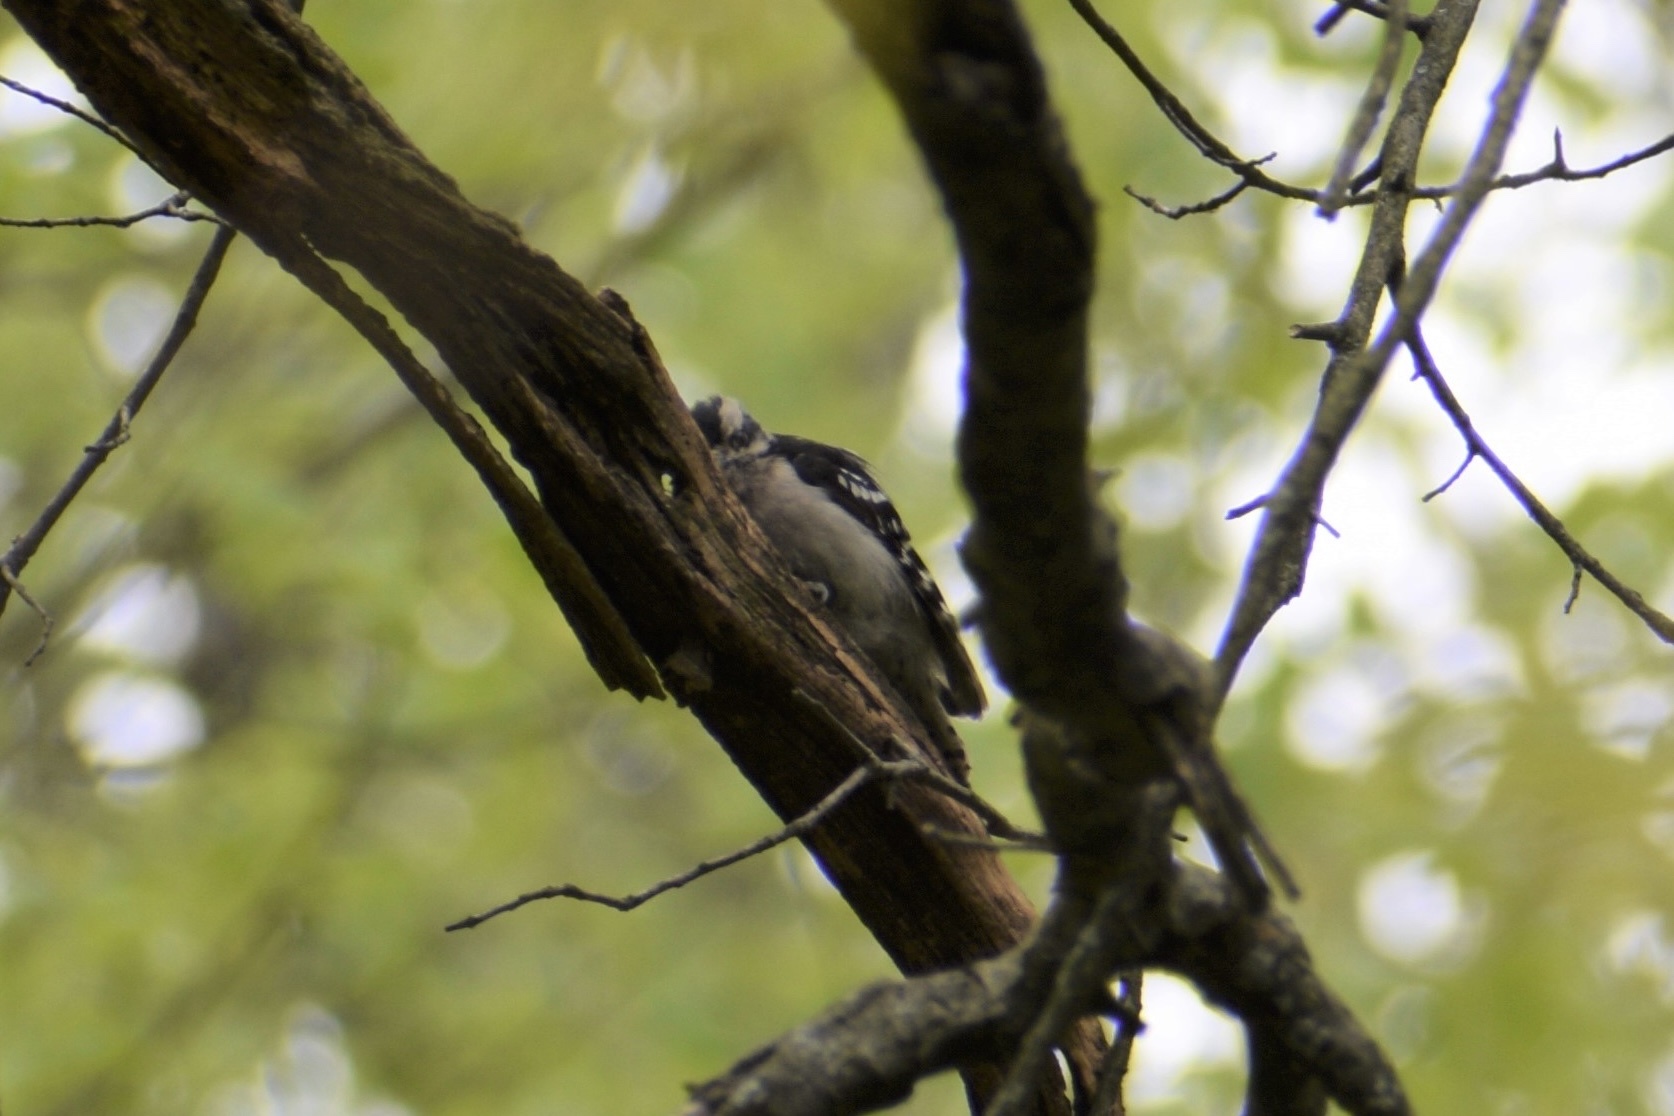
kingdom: Animalia
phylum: Chordata
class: Aves
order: Piciformes
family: Picidae
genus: Dryobates
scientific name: Dryobates pubescens
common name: Downy woodpecker
